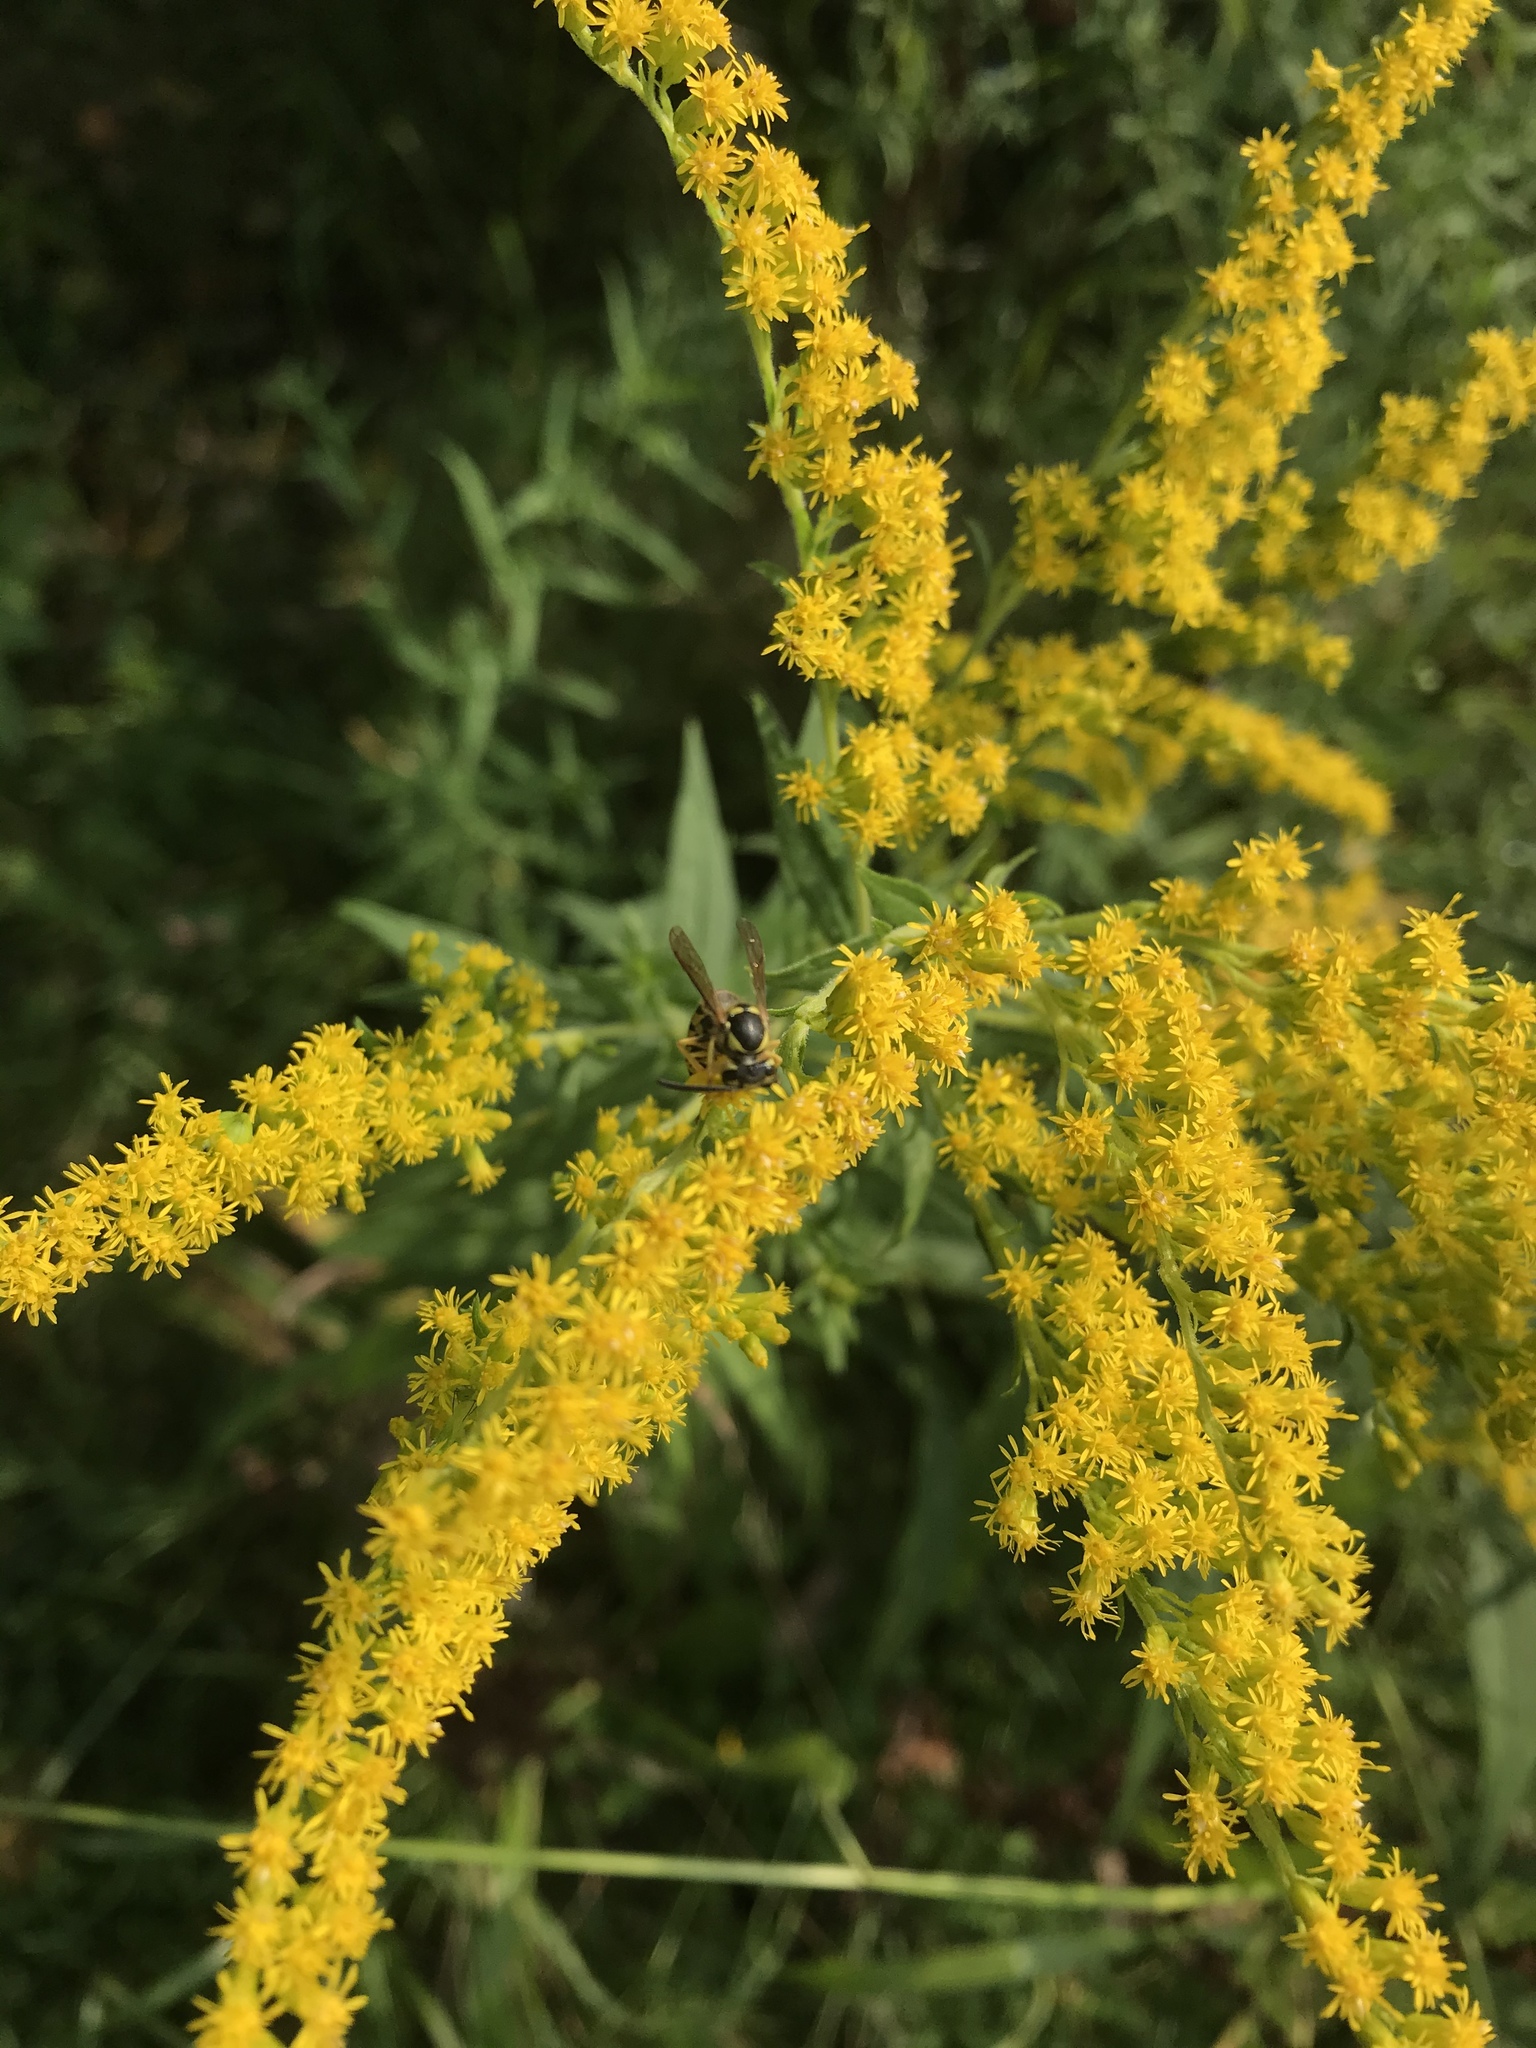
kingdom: Animalia
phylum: Arthropoda
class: Insecta
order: Hymenoptera
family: Vespidae
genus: Vespula
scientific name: Vespula maculifrons
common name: Eastern yellowjacket
